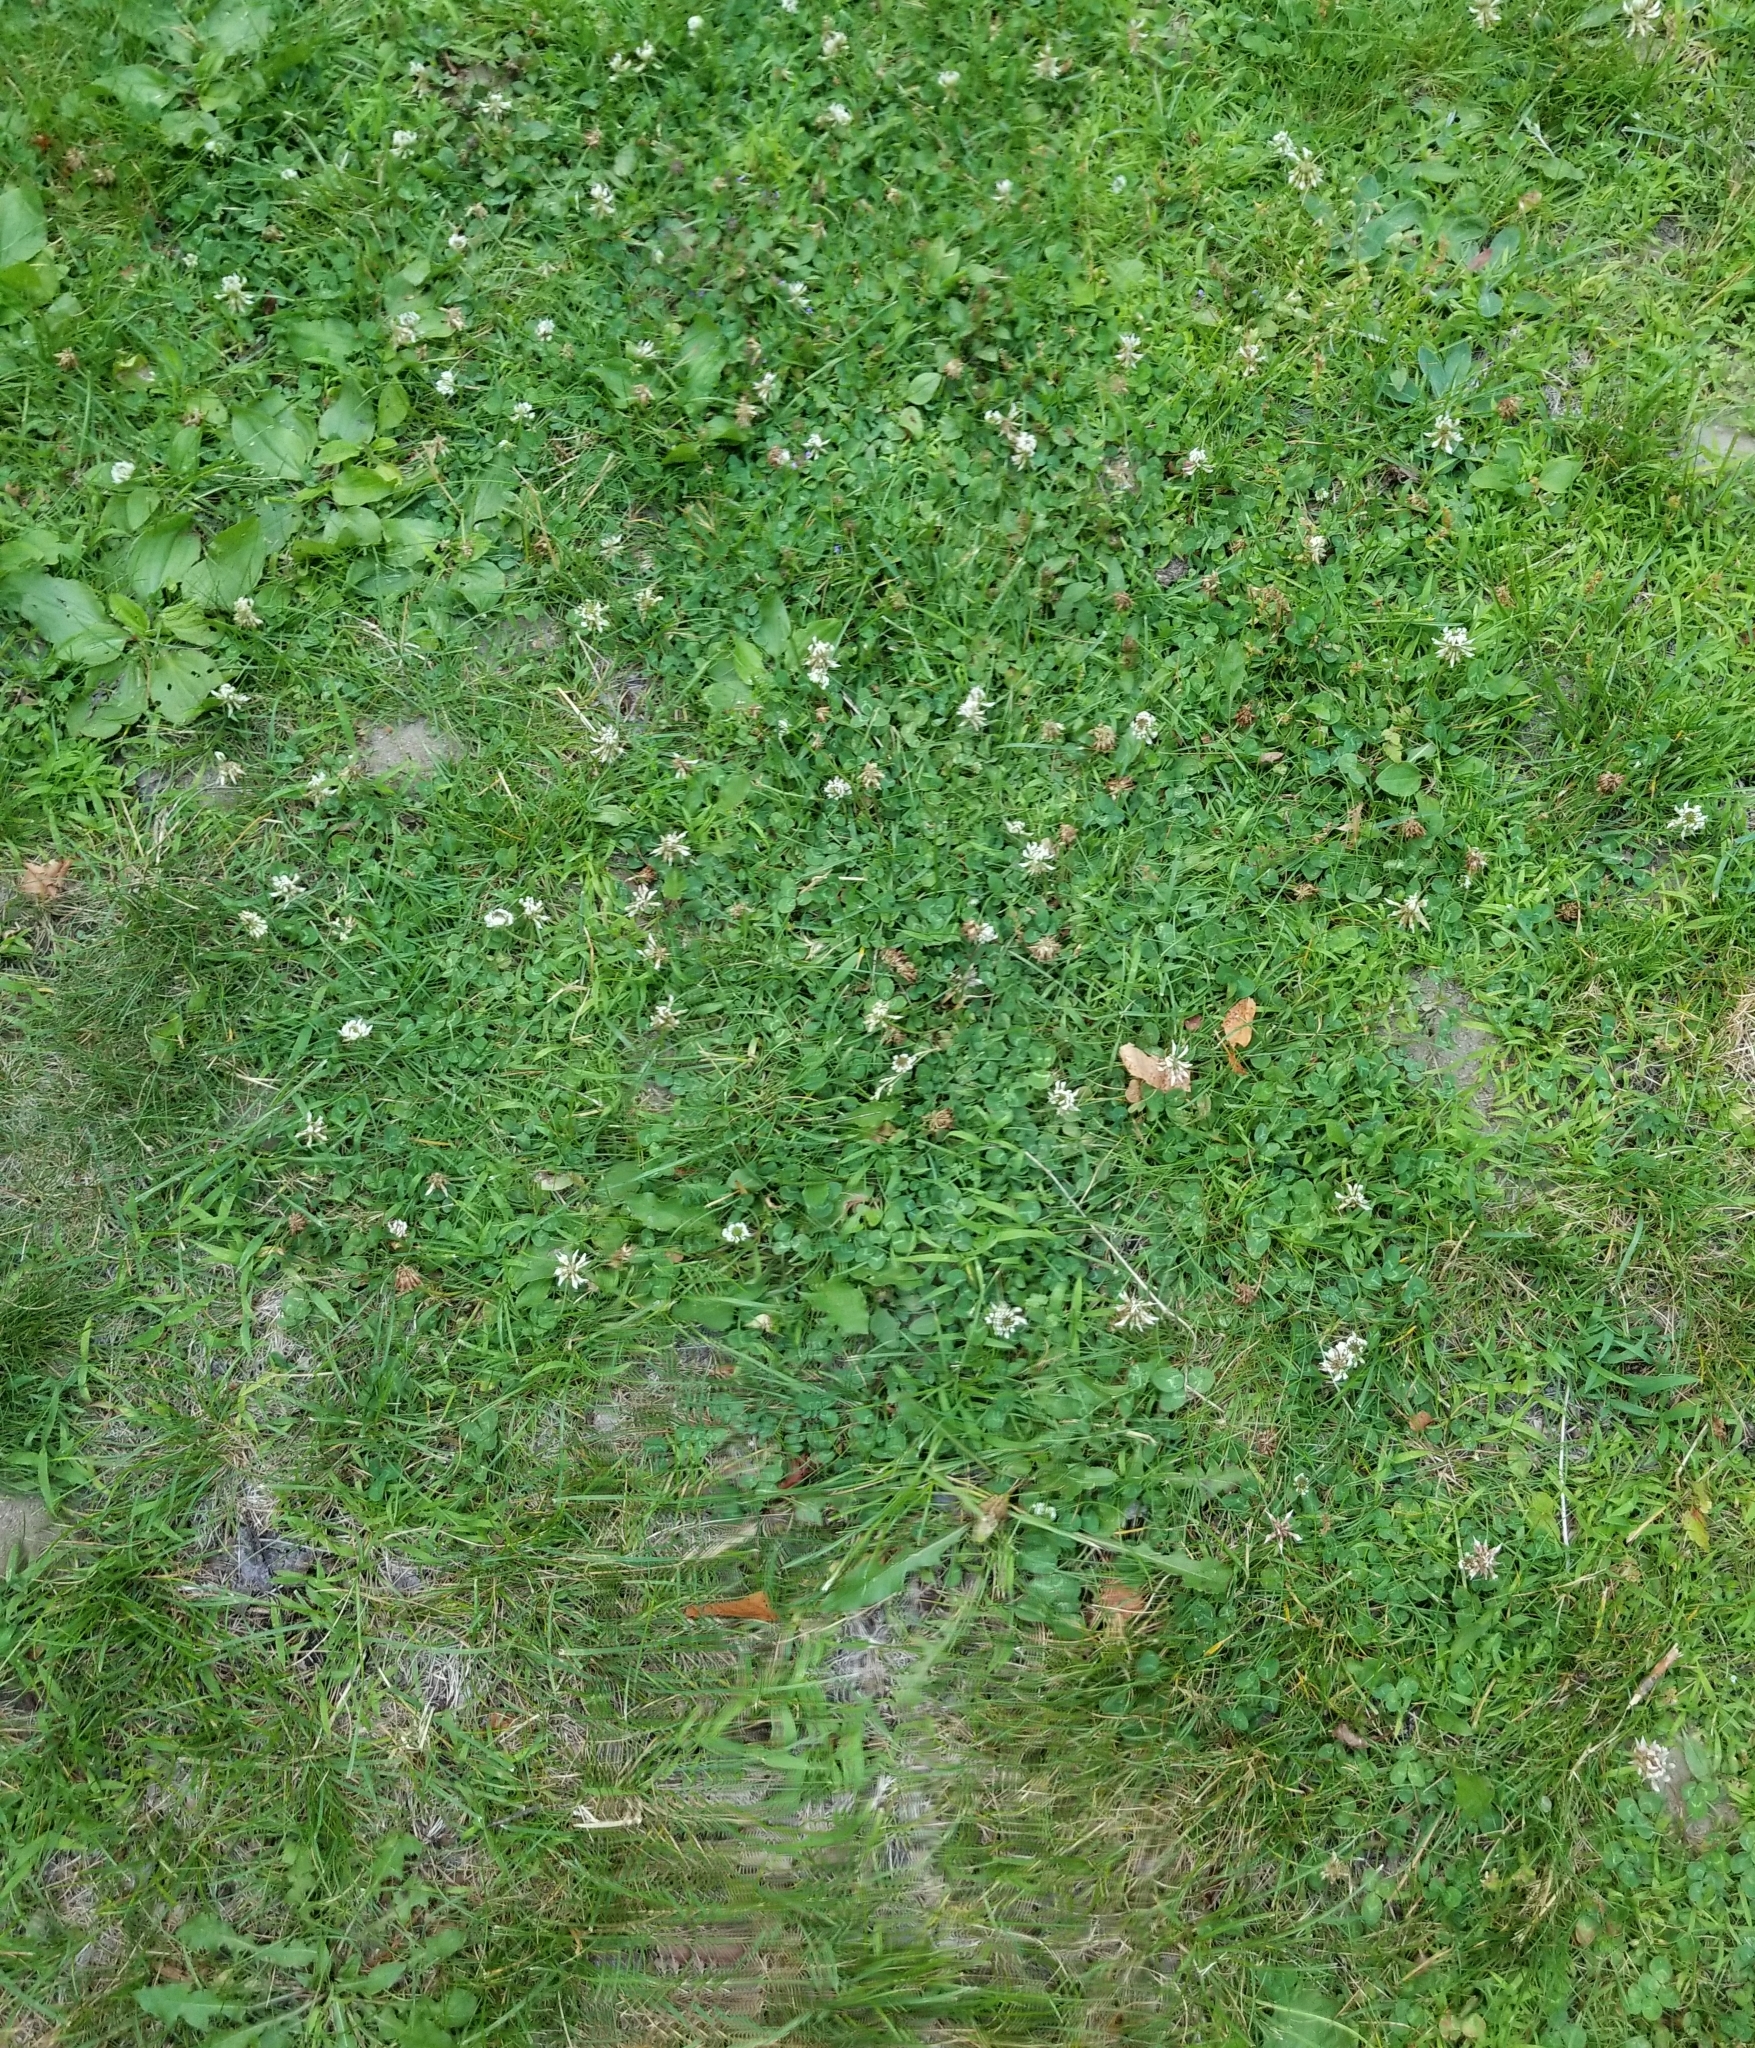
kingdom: Plantae
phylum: Tracheophyta
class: Magnoliopsida
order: Fabales
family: Fabaceae
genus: Trifolium
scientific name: Trifolium repens
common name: White clover
